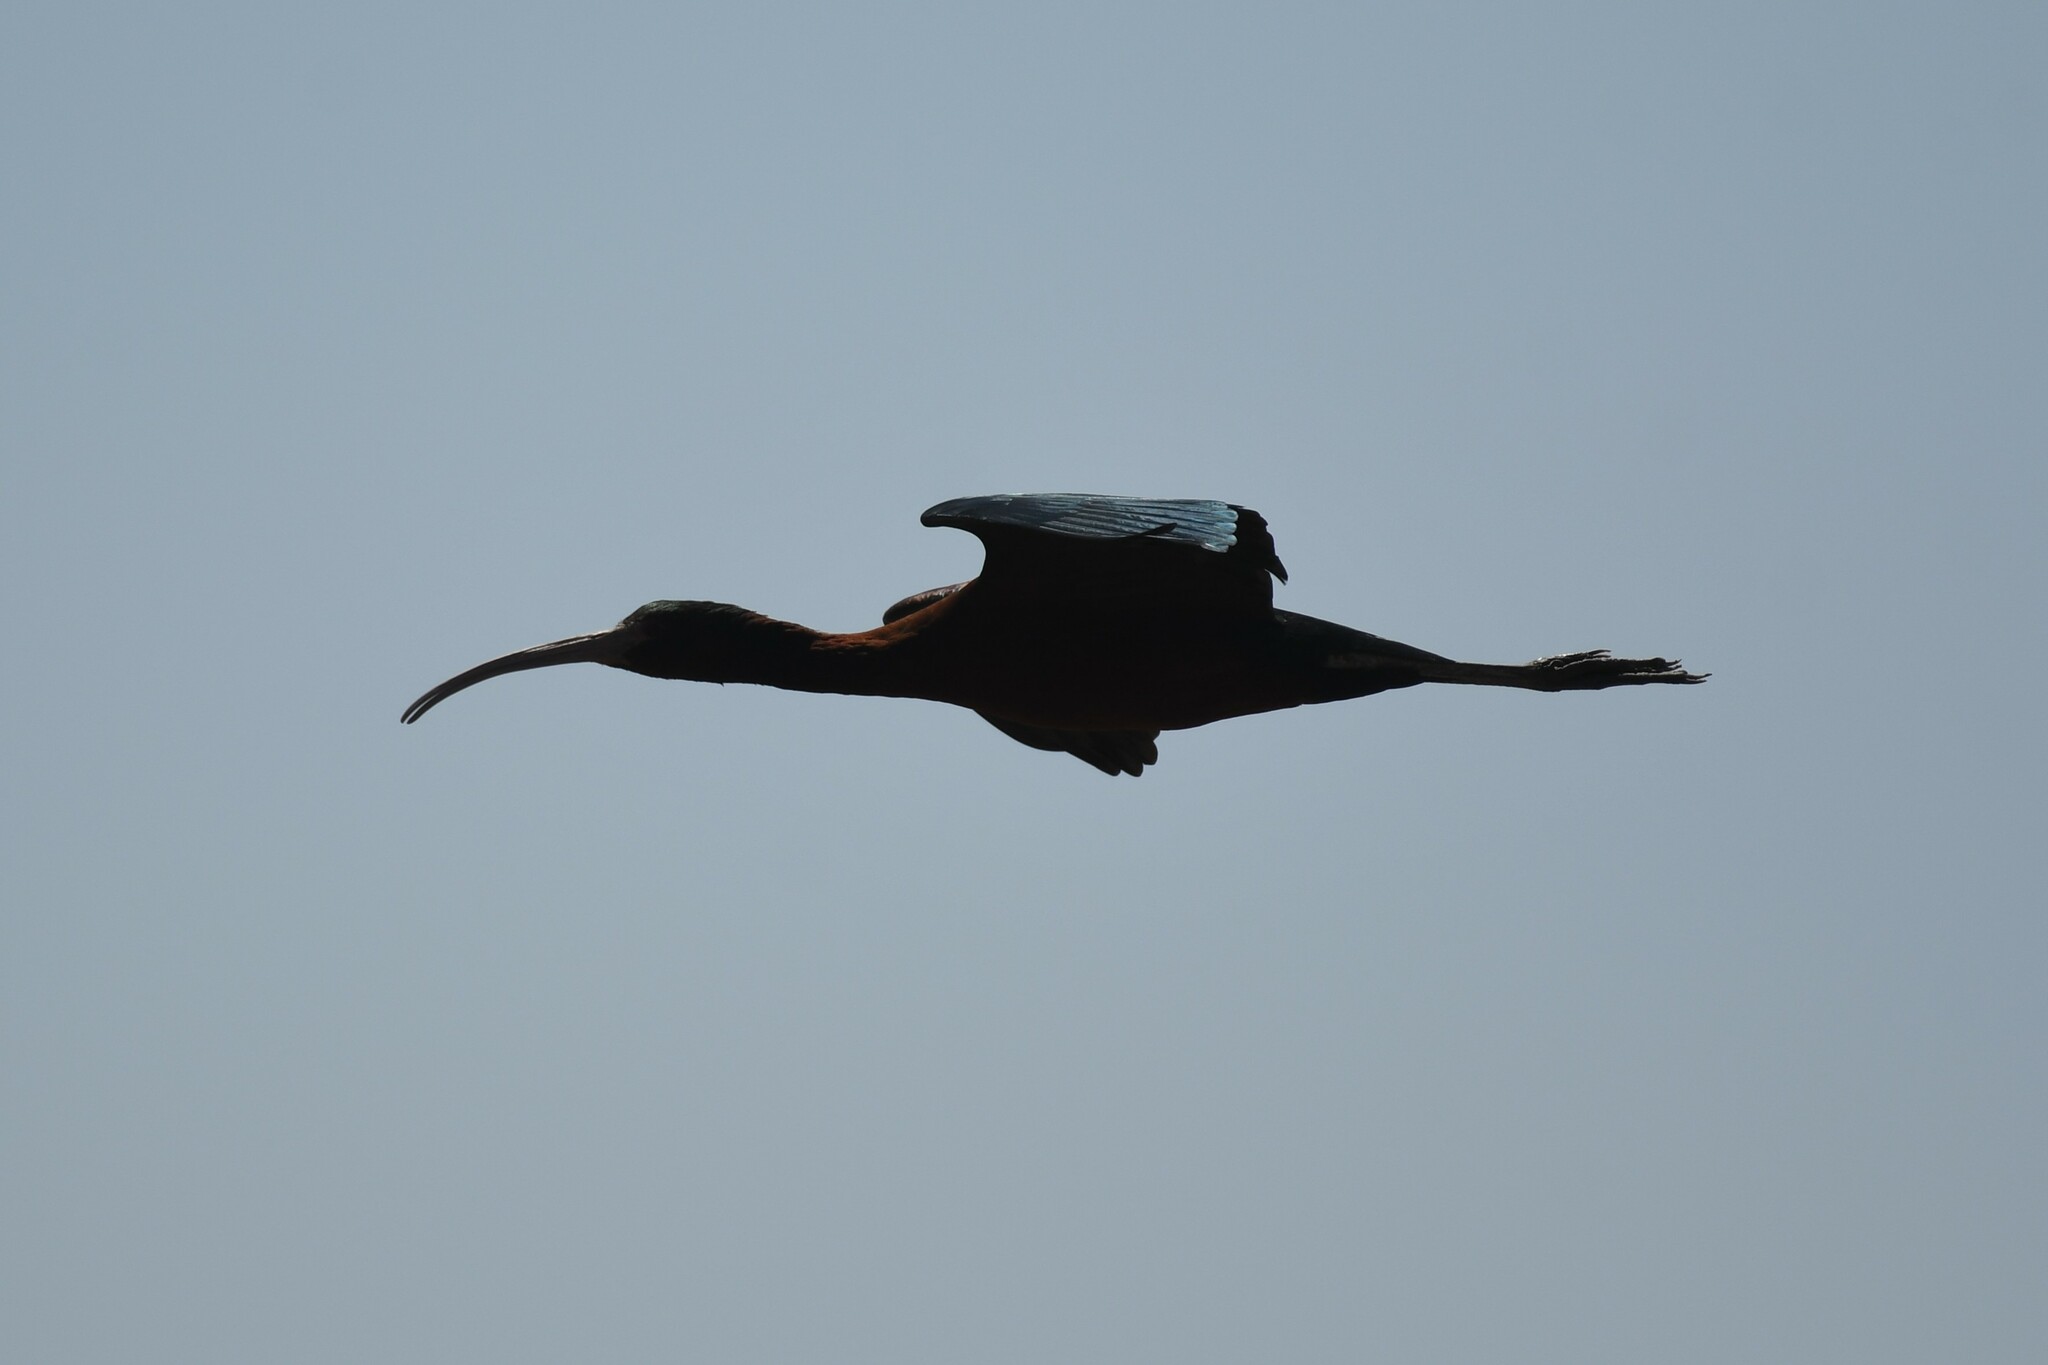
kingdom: Animalia
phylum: Chordata
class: Aves
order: Pelecaniformes
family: Threskiornithidae
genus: Plegadis
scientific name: Plegadis chihi
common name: White-faced ibis
